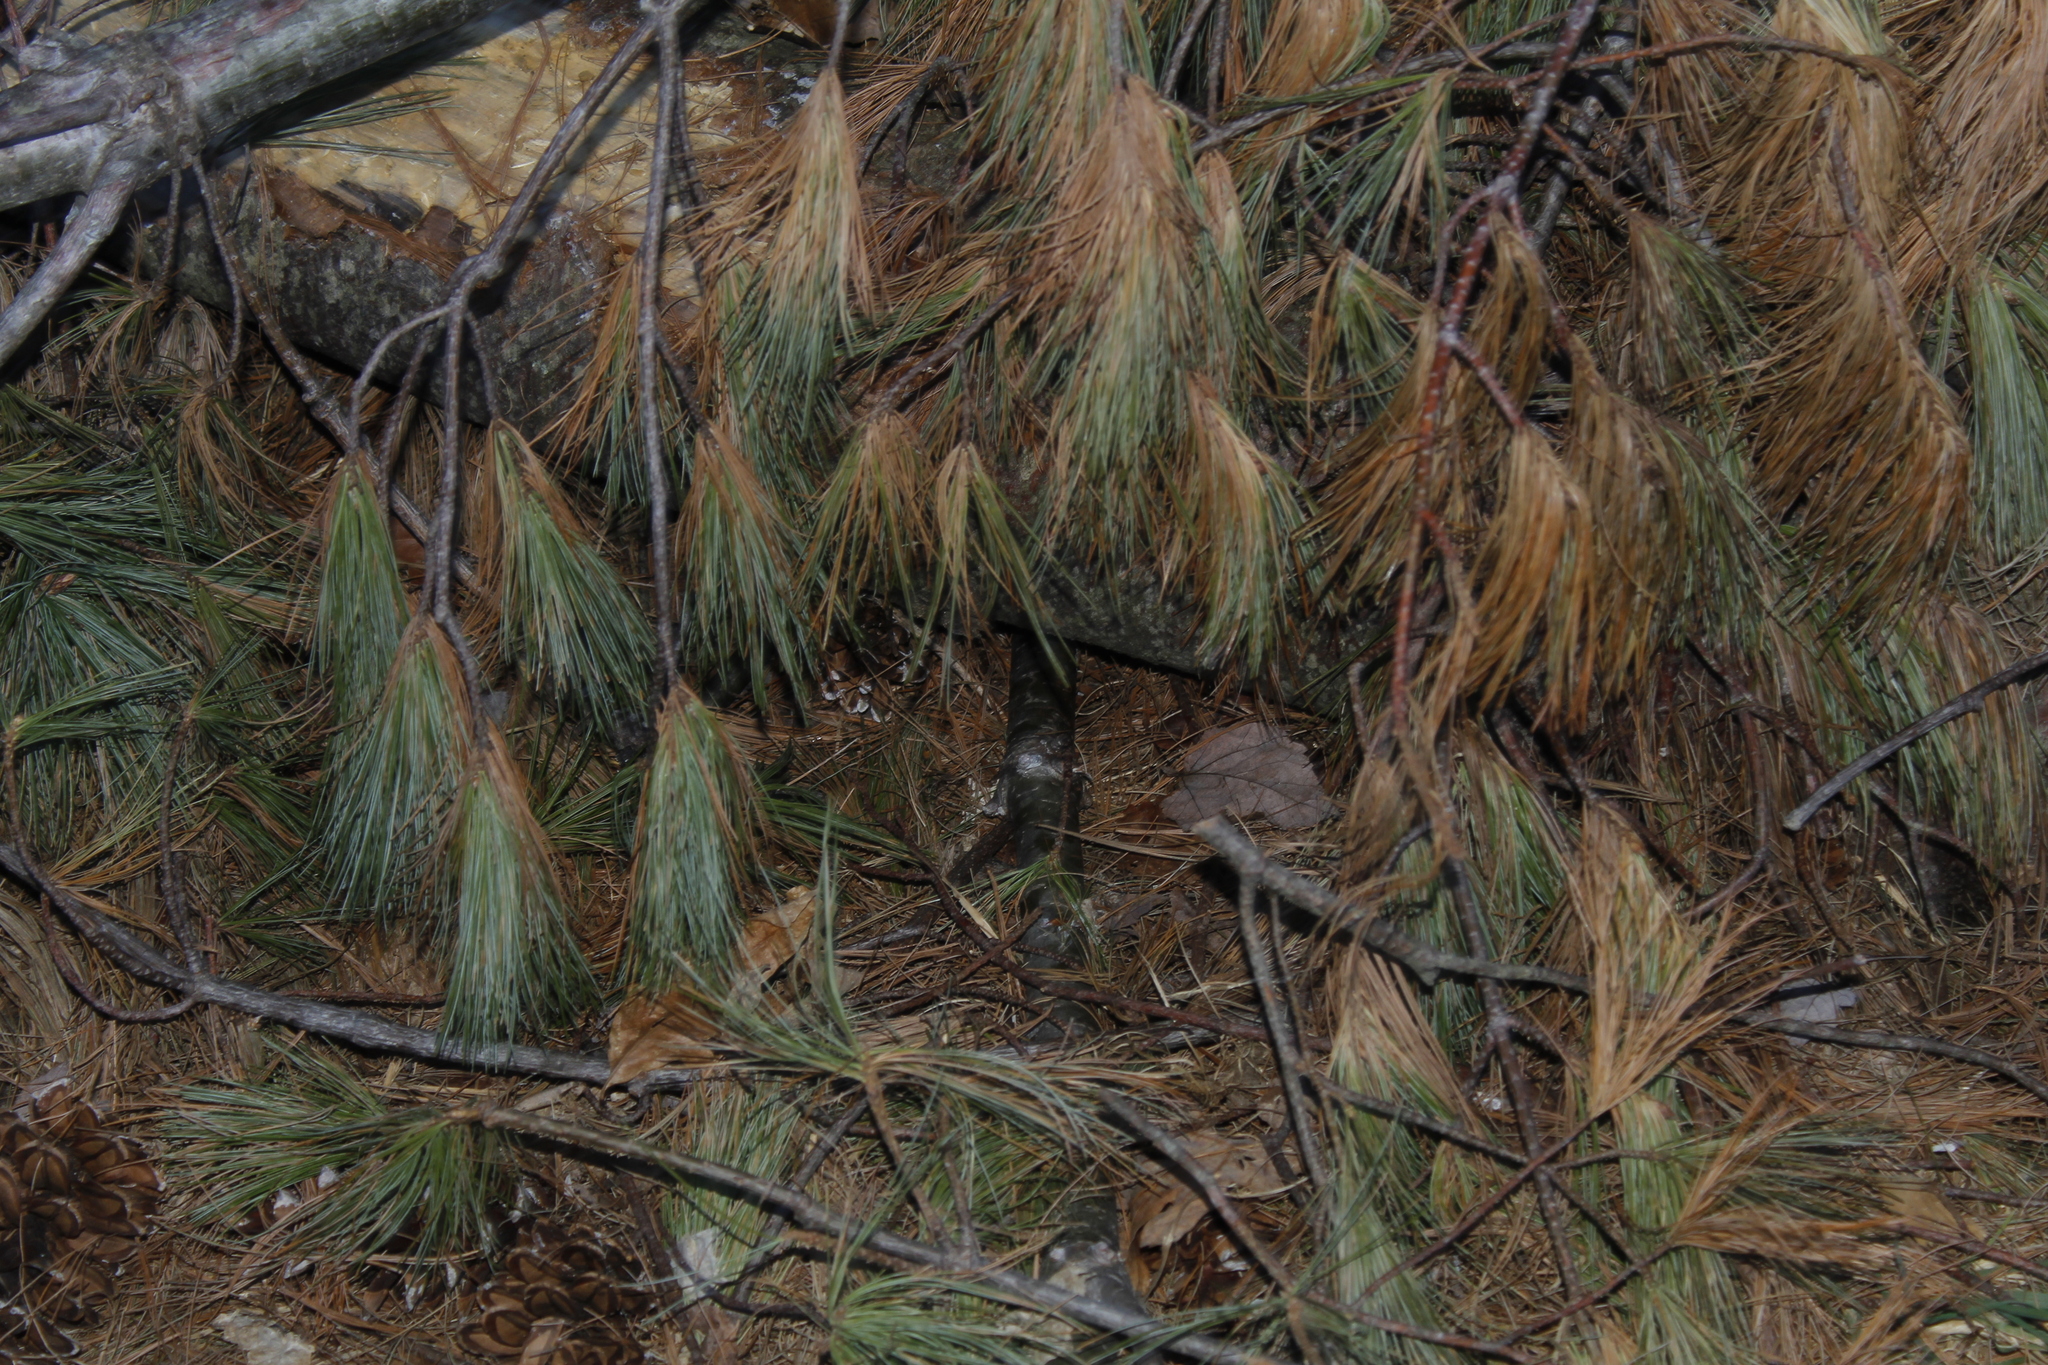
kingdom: Plantae
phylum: Tracheophyta
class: Pinopsida
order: Pinales
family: Pinaceae
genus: Pinus
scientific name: Pinus strobus
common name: Weymouth pine
